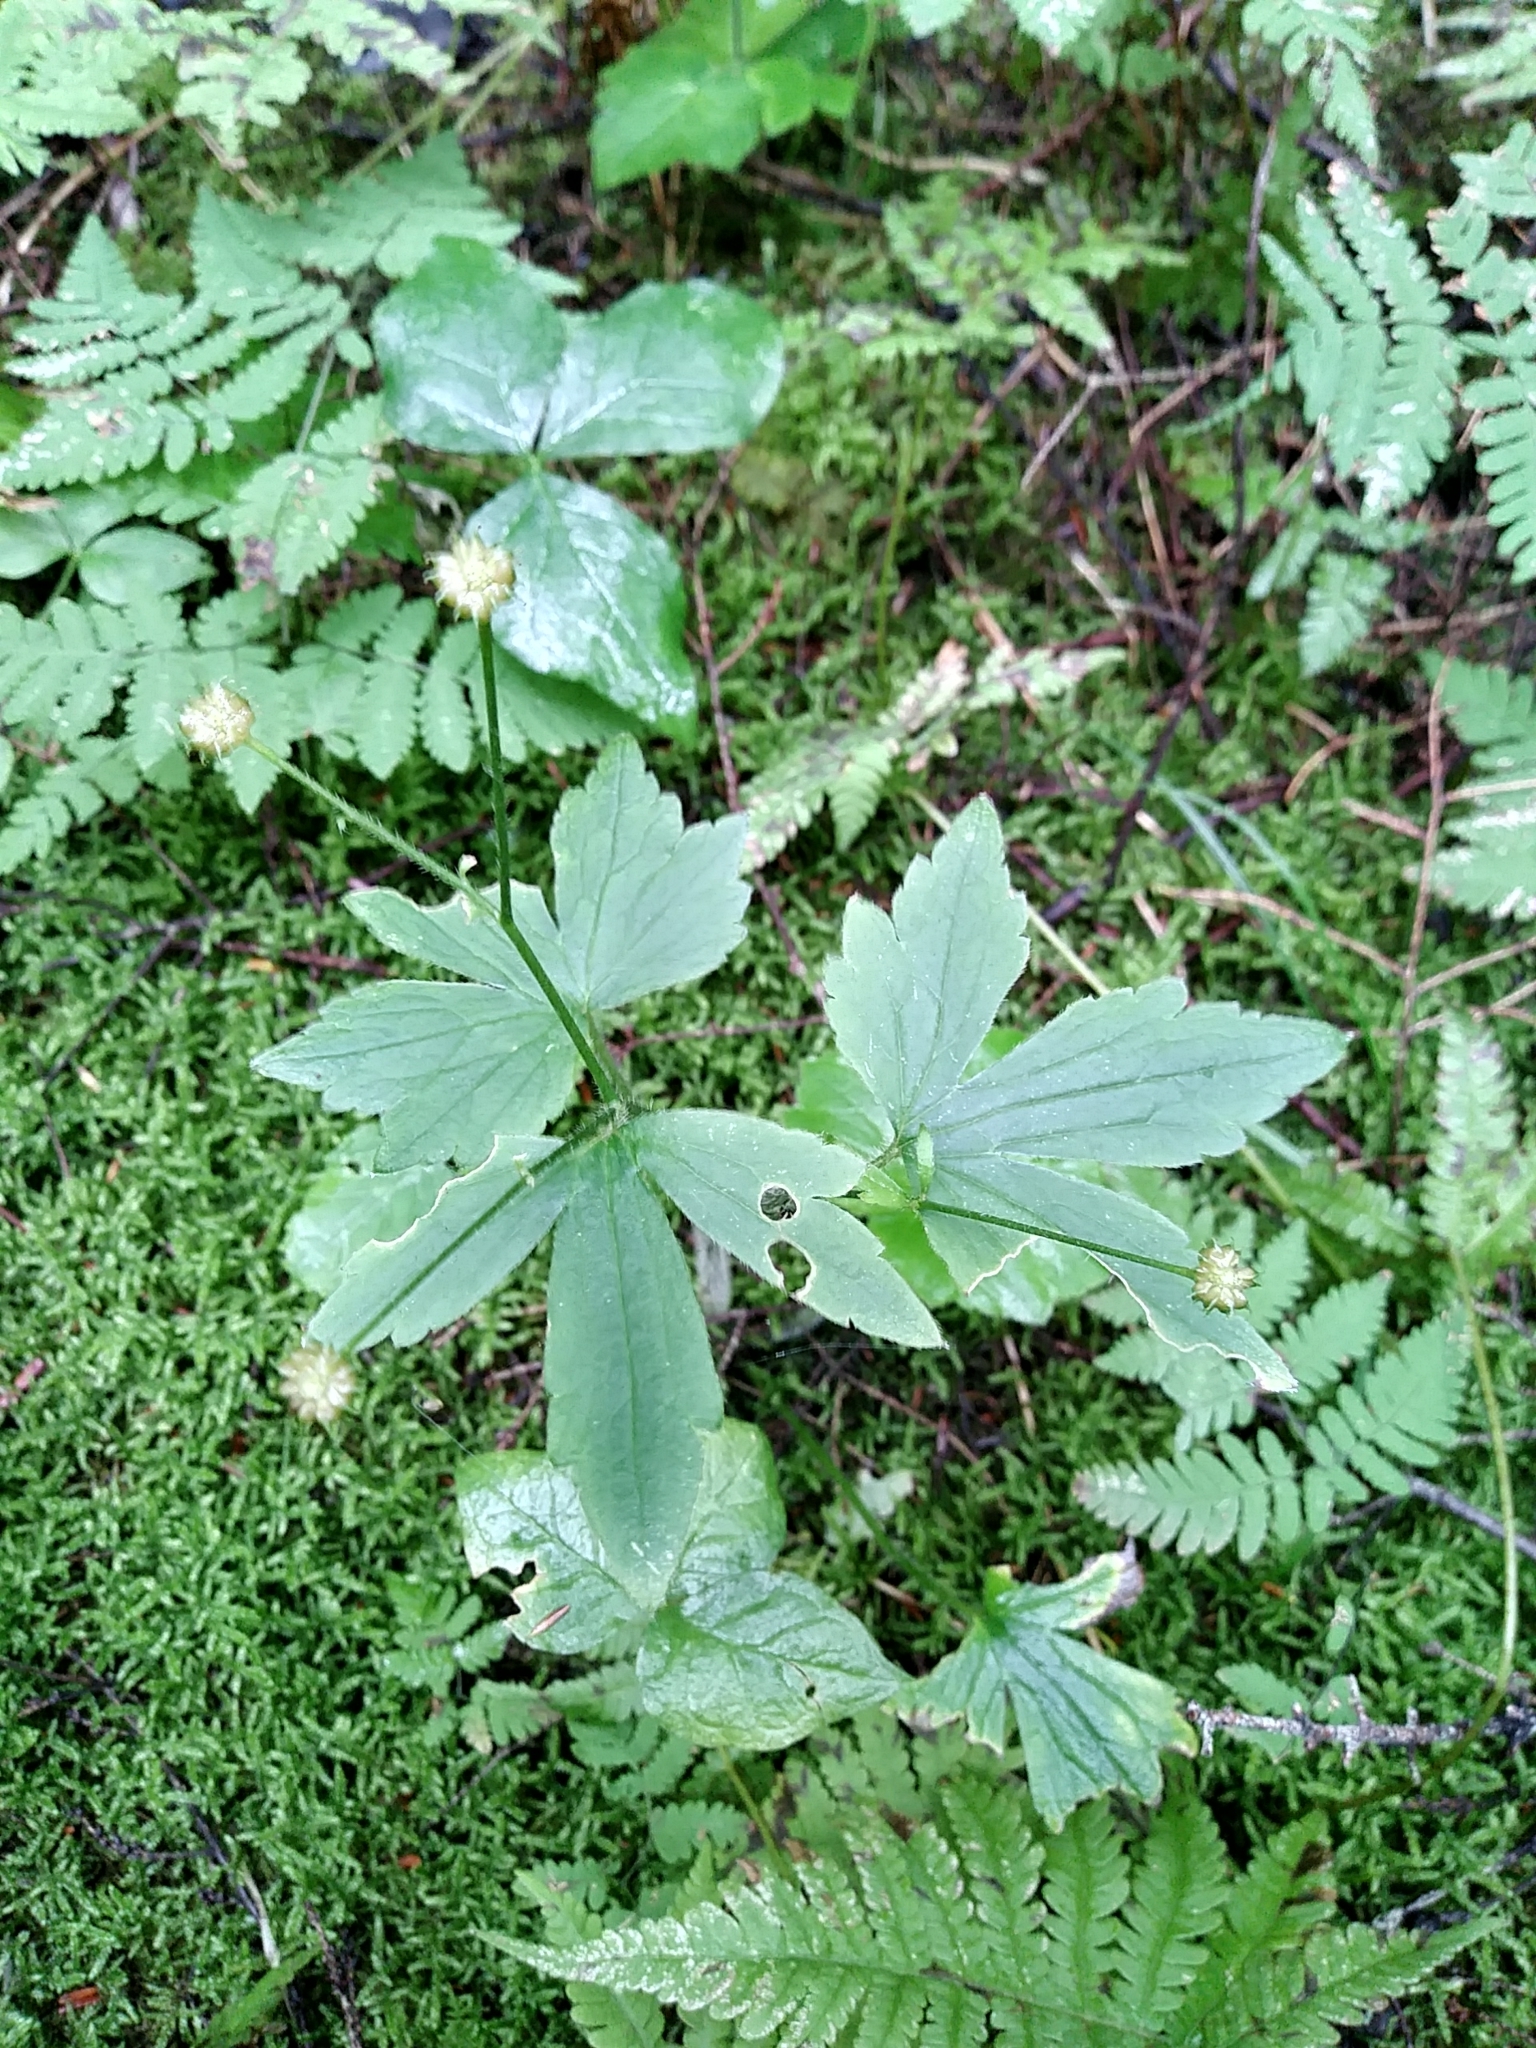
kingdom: Plantae
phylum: Tracheophyta
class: Magnoliopsida
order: Ranunculales
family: Ranunculaceae
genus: Ranunculus
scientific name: Ranunculus recurvatus
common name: Blisterwort
